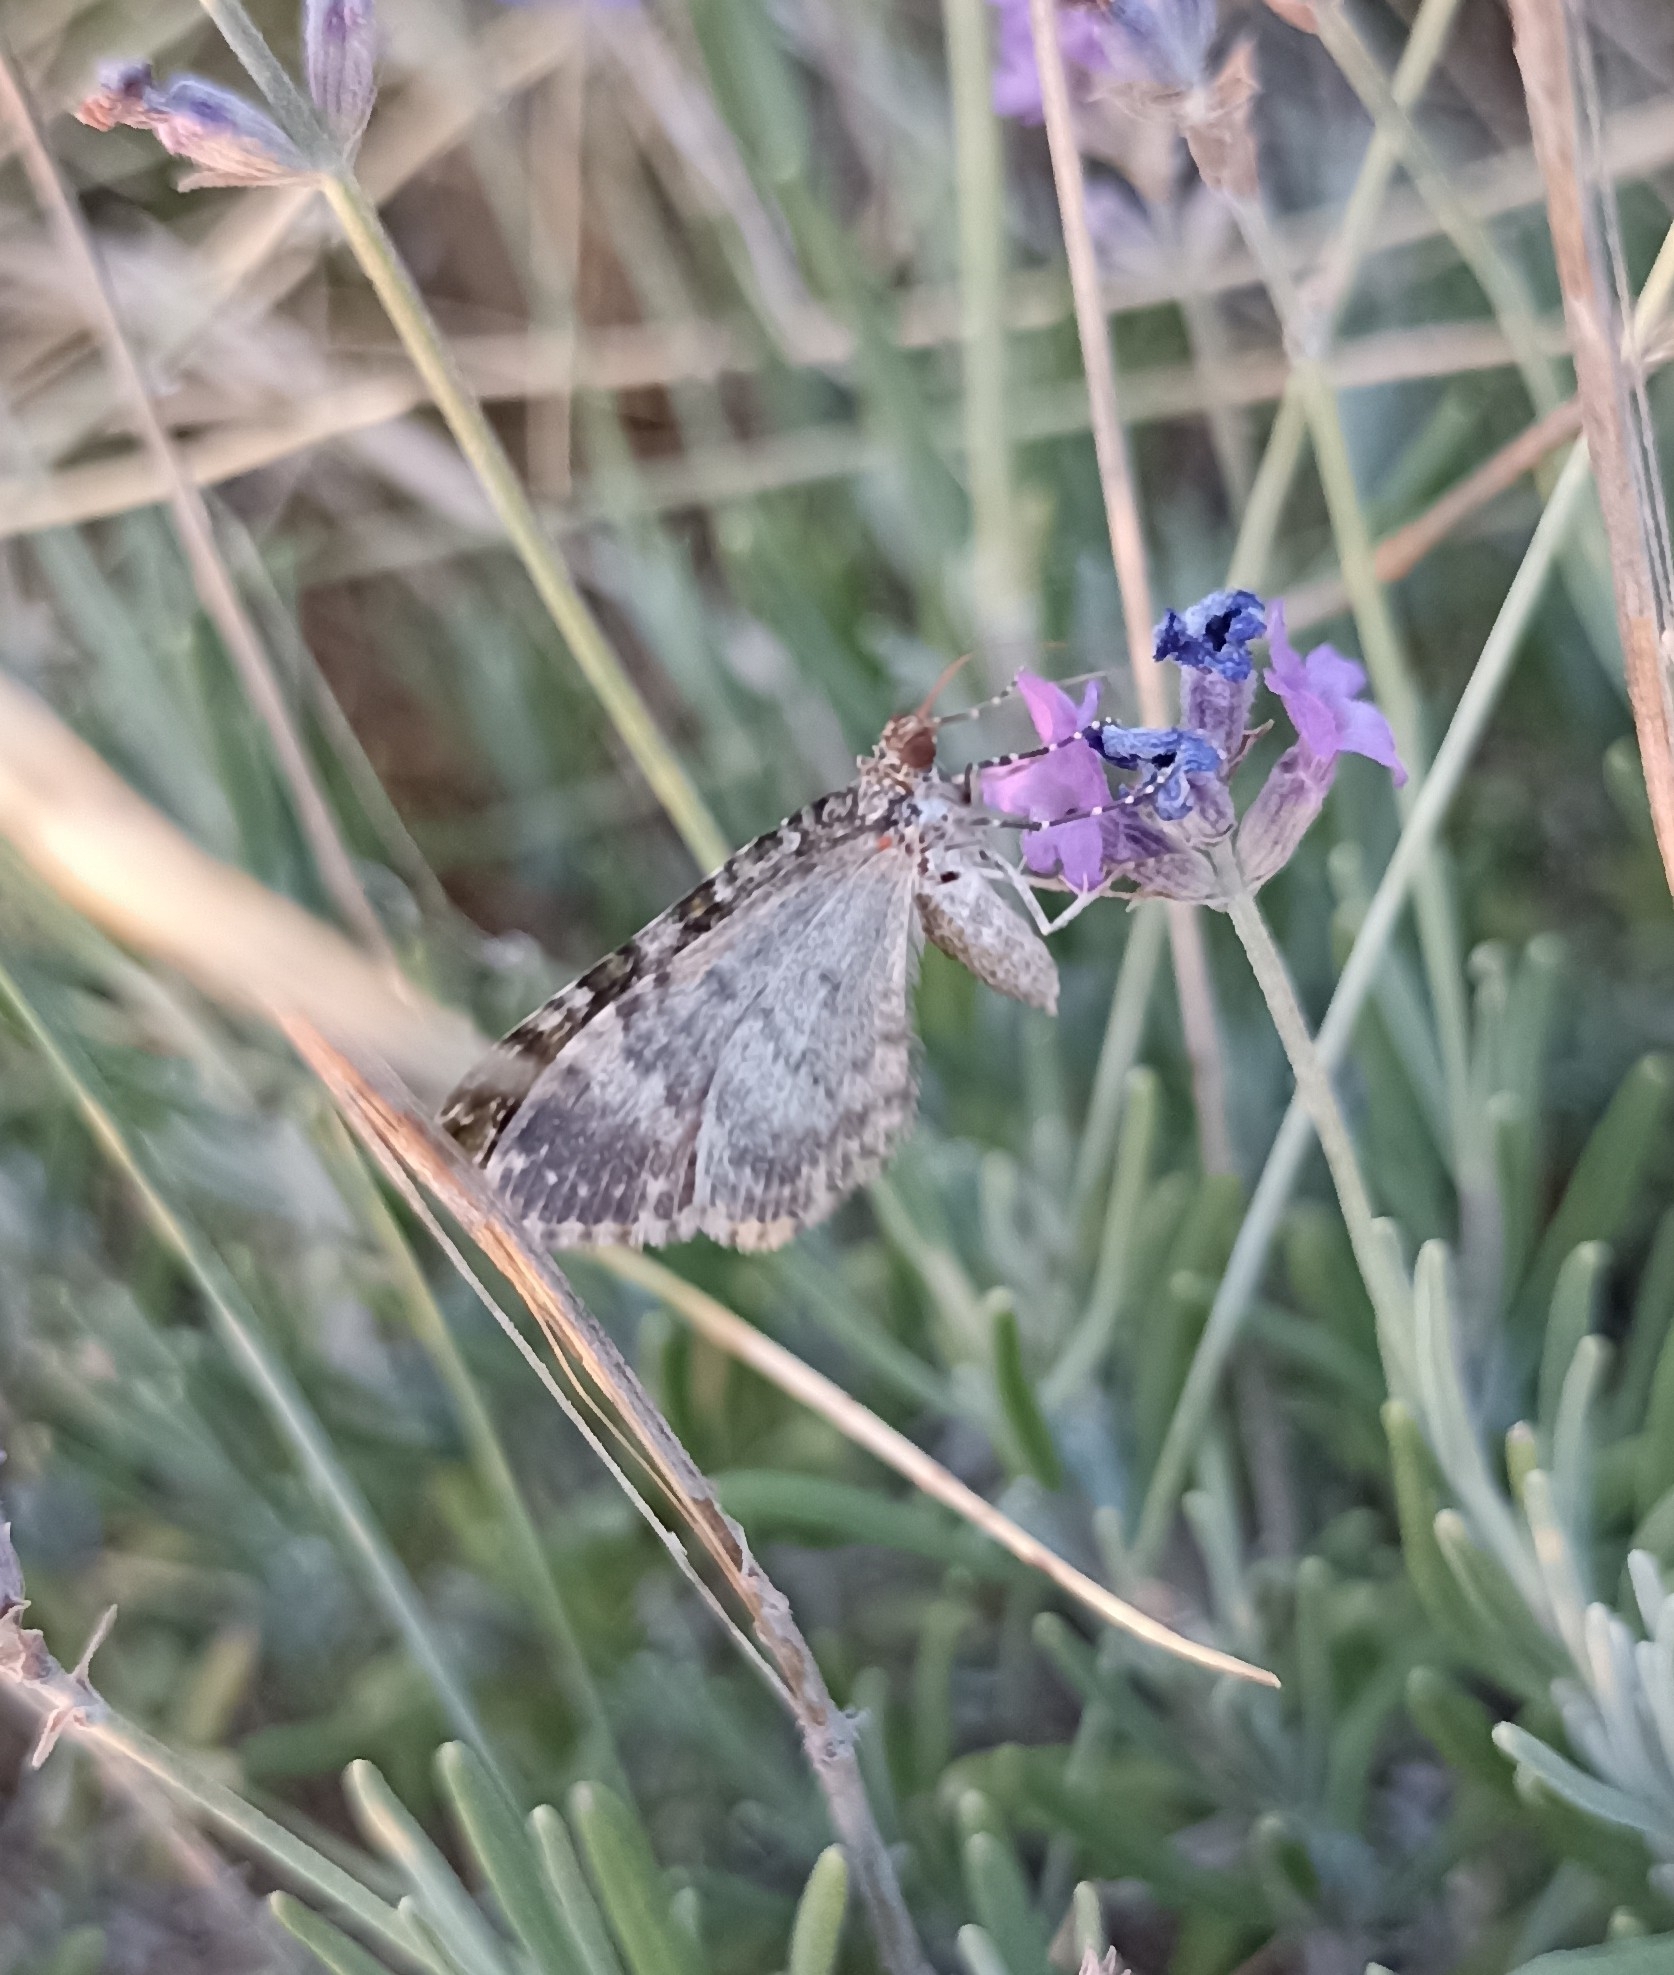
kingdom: Animalia
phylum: Arthropoda
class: Insecta
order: Lepidoptera
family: Geometridae
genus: Euphyia
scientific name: Euphyia frustata
